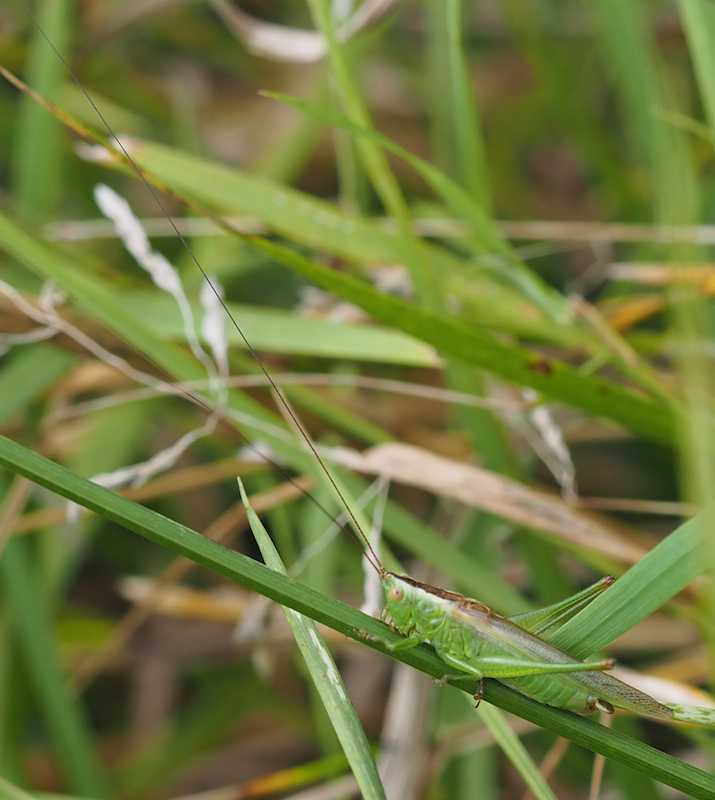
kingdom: Animalia
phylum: Arthropoda
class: Insecta
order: Orthoptera
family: Tettigoniidae
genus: Conocephalus
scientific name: Conocephalus fuscus
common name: Long-winged conehead
